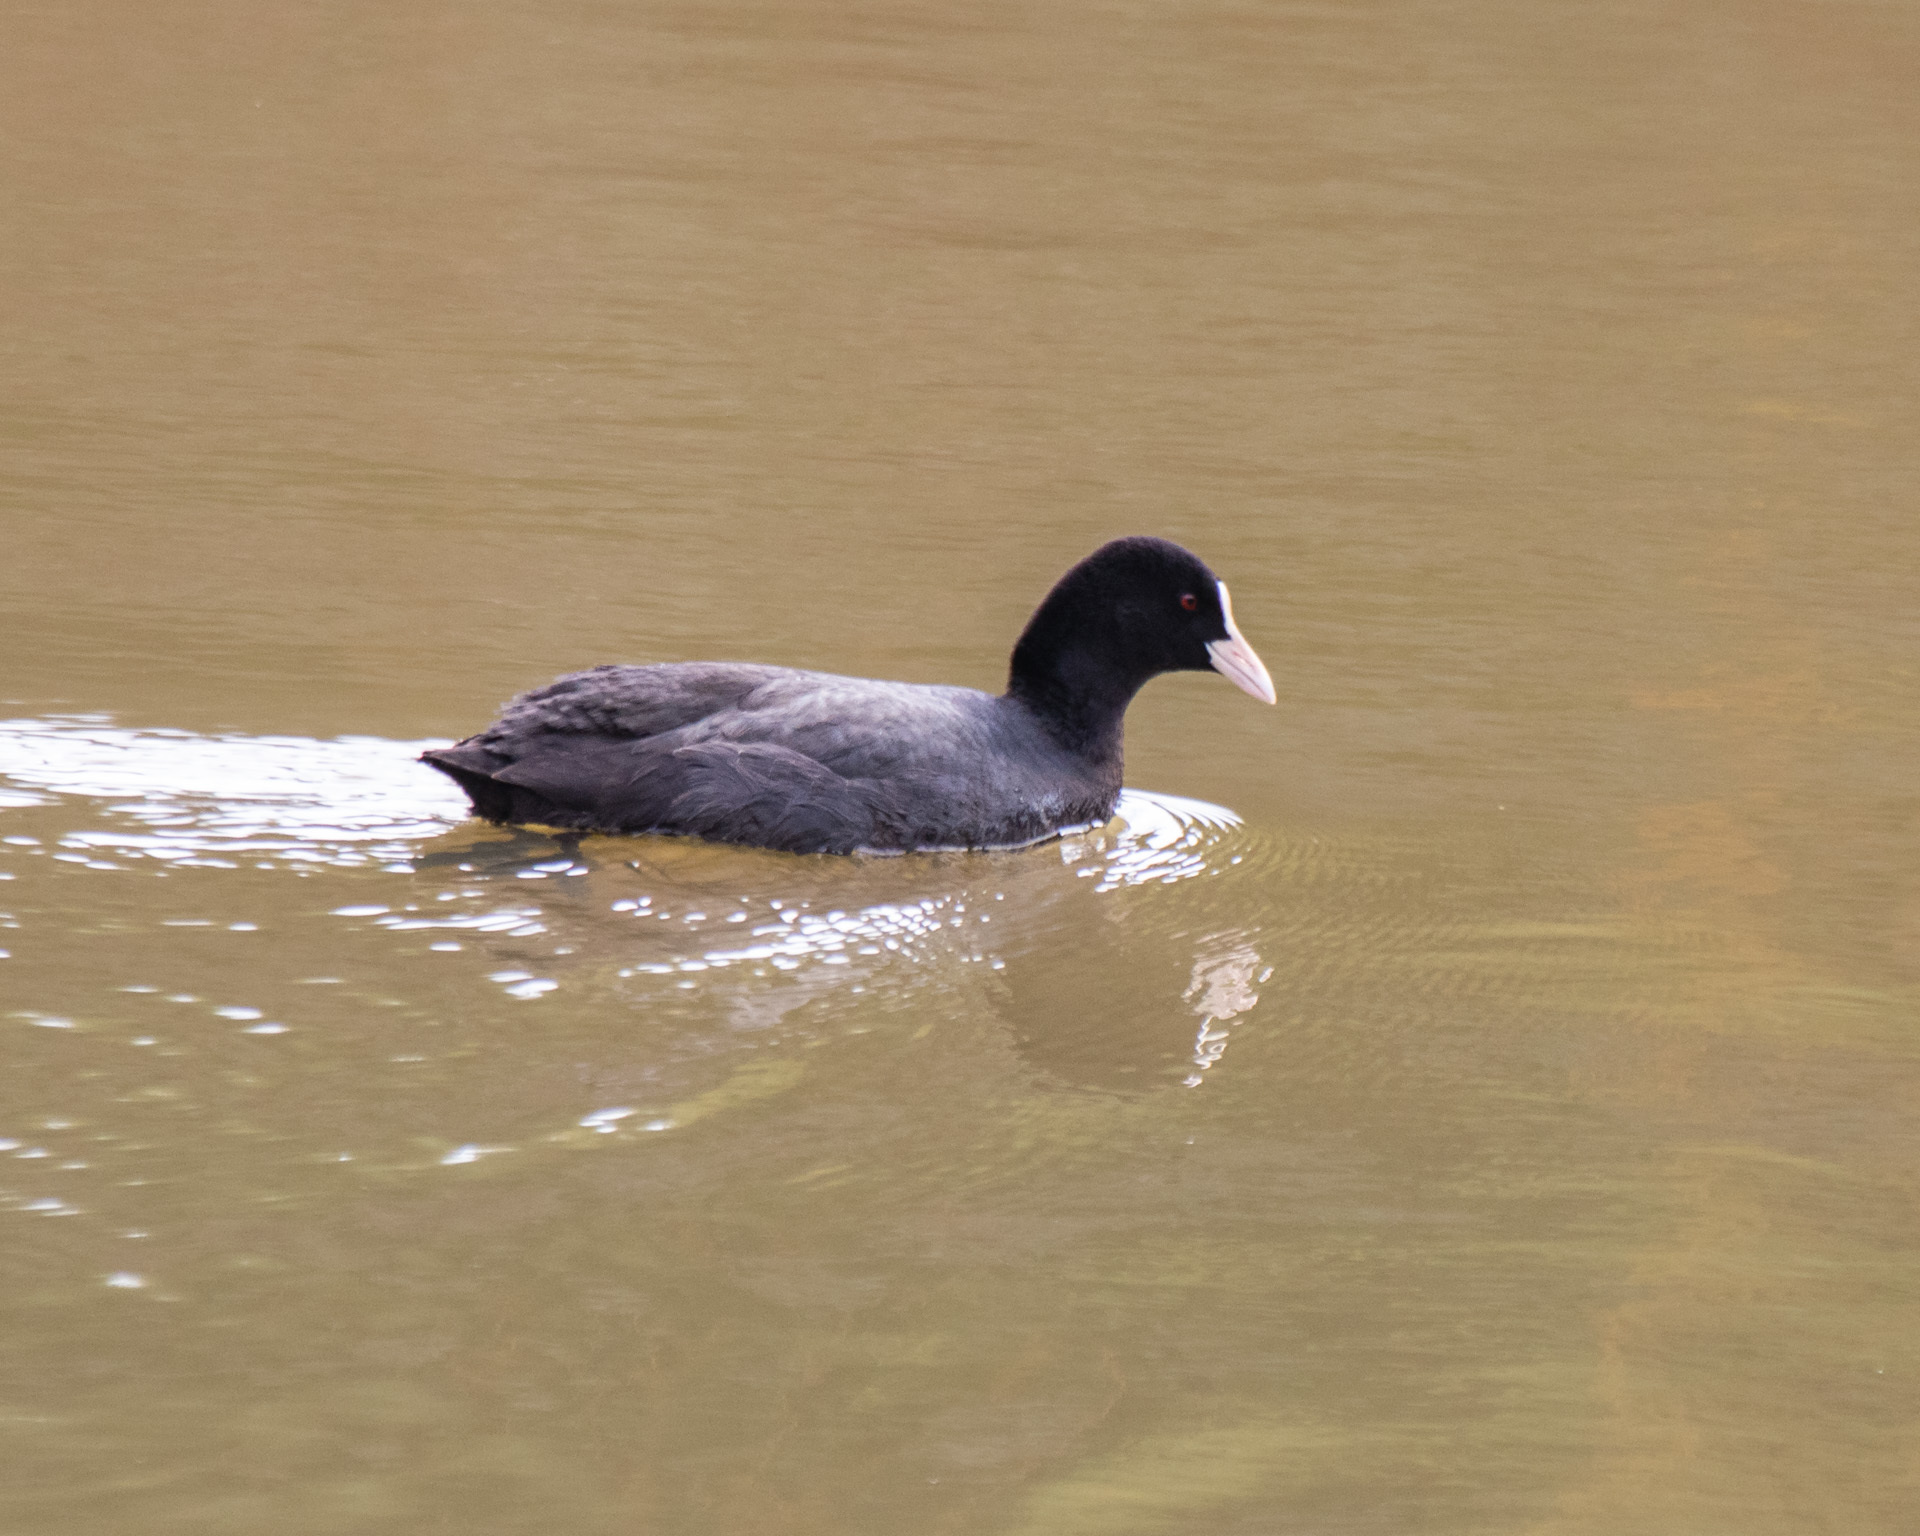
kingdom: Animalia
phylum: Chordata
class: Aves
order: Gruiformes
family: Rallidae
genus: Fulica
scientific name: Fulica atra
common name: Eurasian coot
